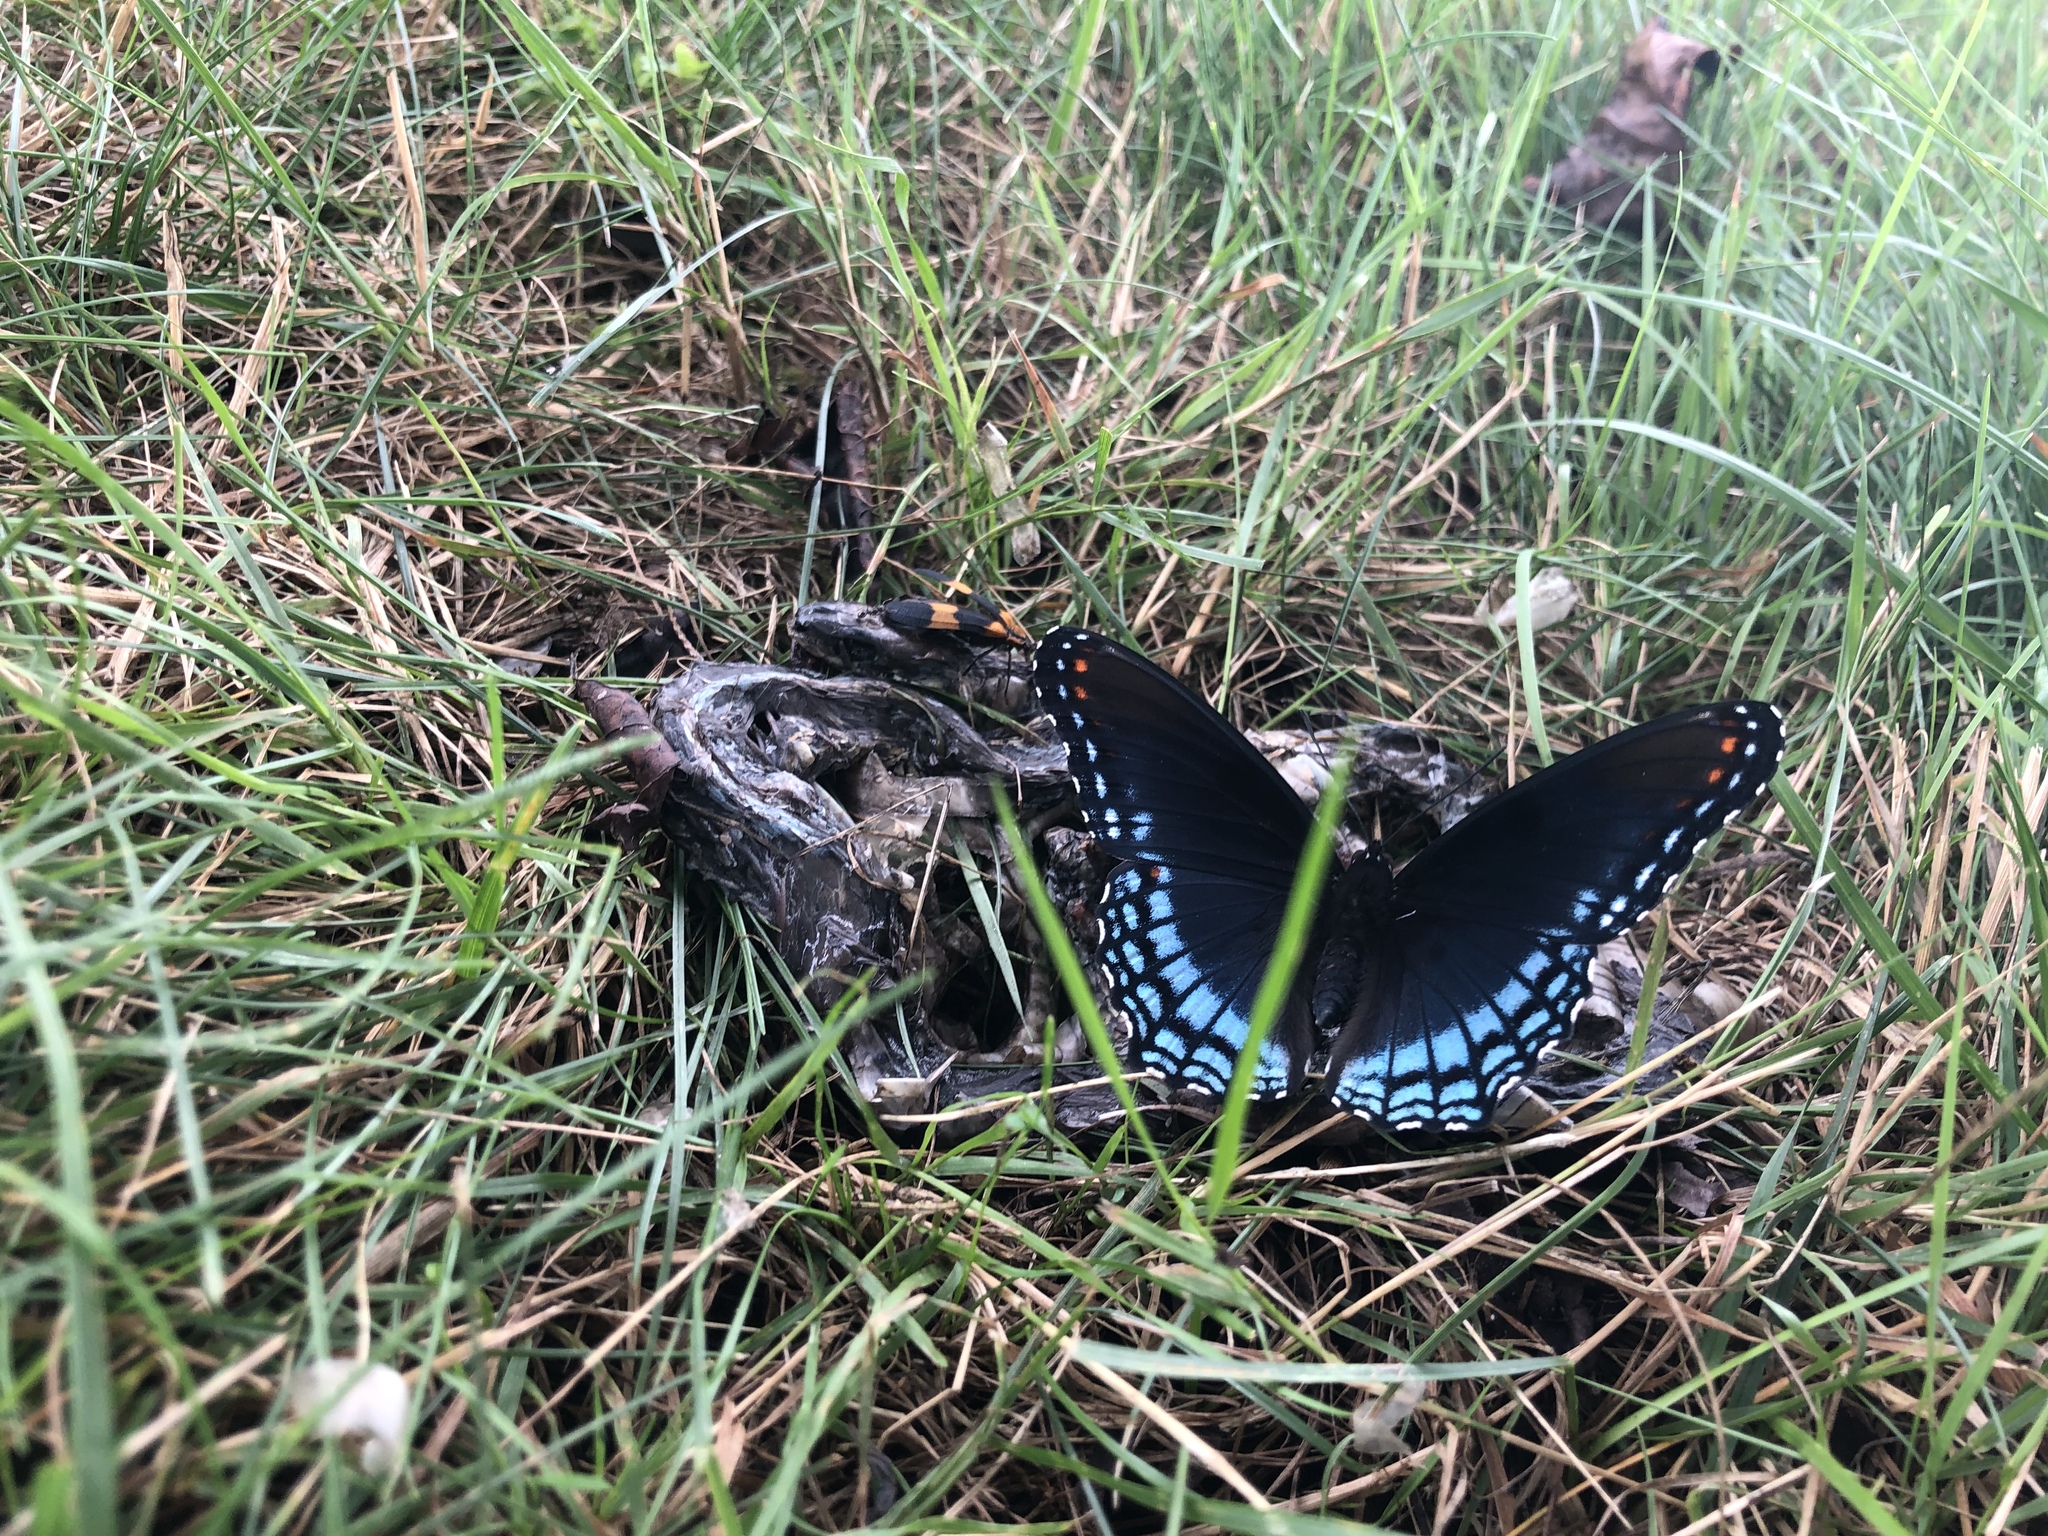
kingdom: Animalia
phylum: Arthropoda
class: Insecta
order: Lepidoptera
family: Nymphalidae
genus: Limenitis
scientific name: Limenitis arthemis
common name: Red-spotted admiral
